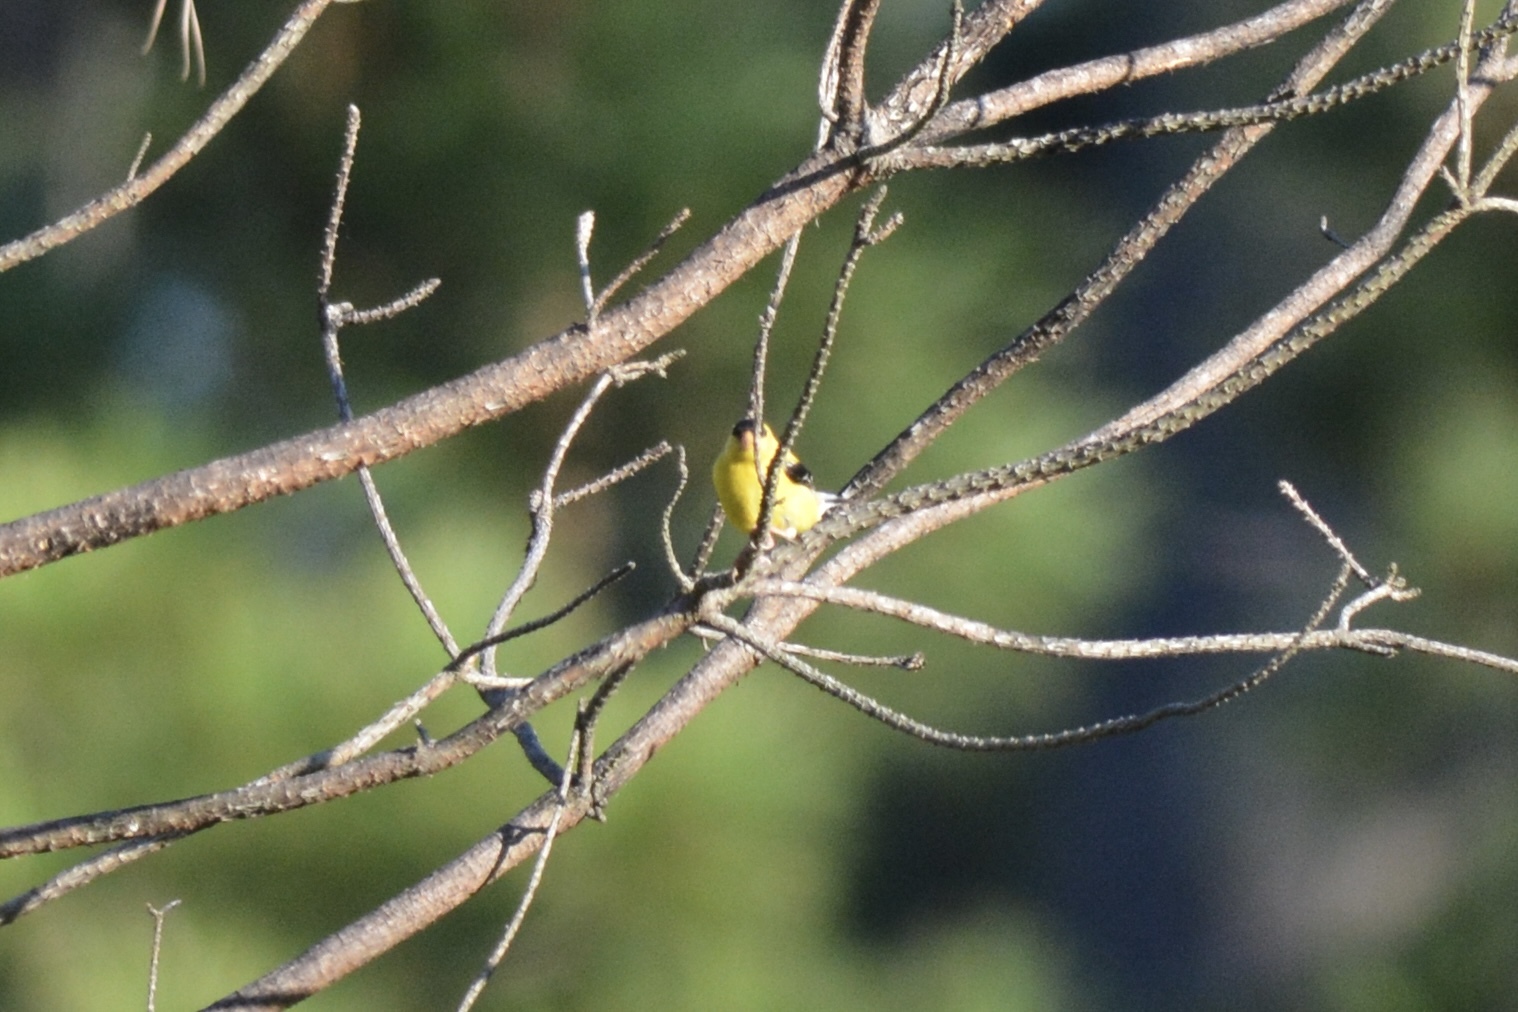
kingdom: Animalia
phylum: Chordata
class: Aves
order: Passeriformes
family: Fringillidae
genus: Spinus
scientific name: Spinus tristis
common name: American goldfinch
